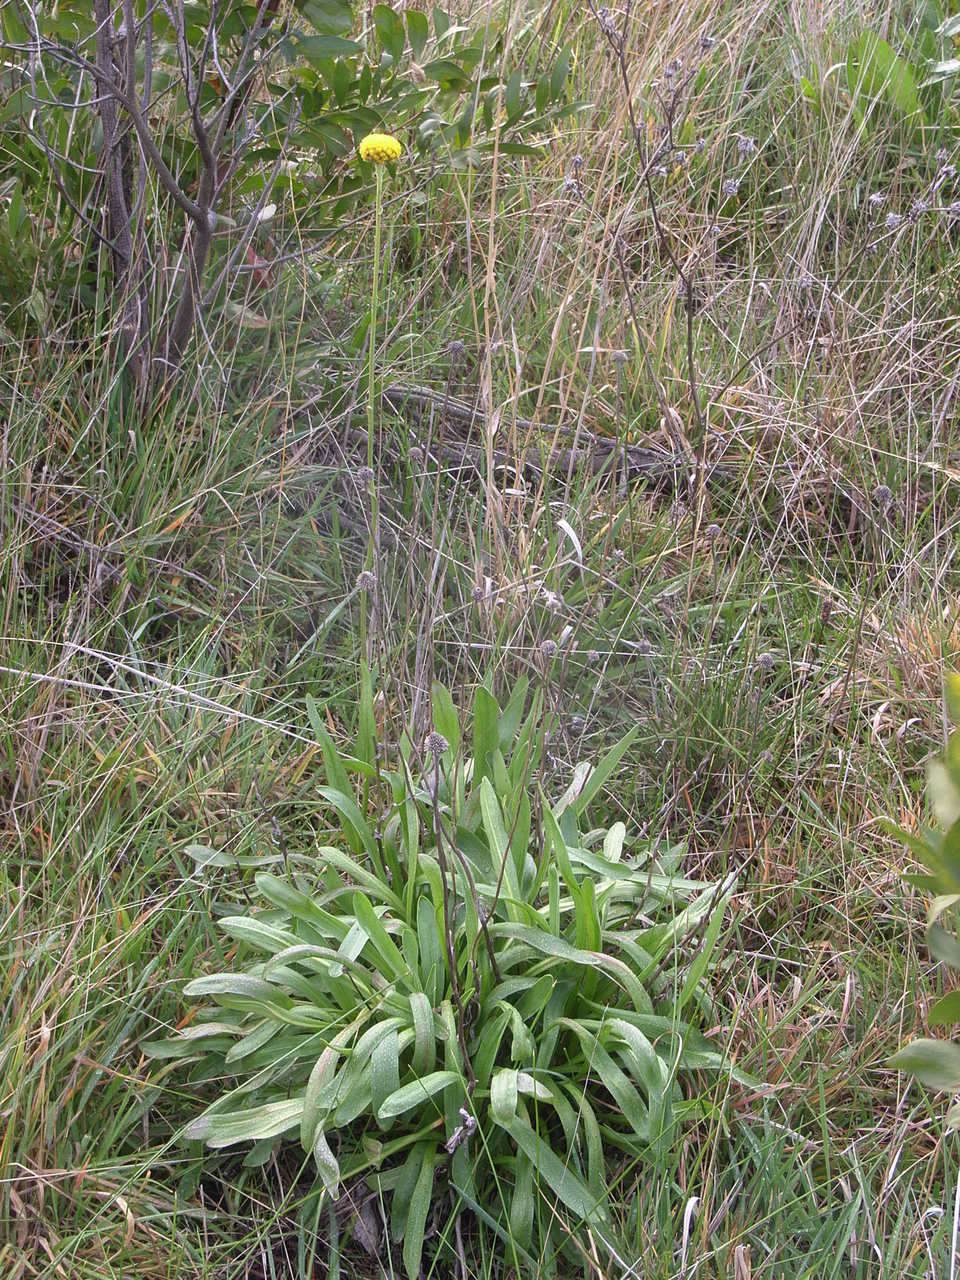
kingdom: Plantae
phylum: Tracheophyta
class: Magnoliopsida
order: Asterales
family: Asteraceae
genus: Craspedia
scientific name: Craspedia paludicola
